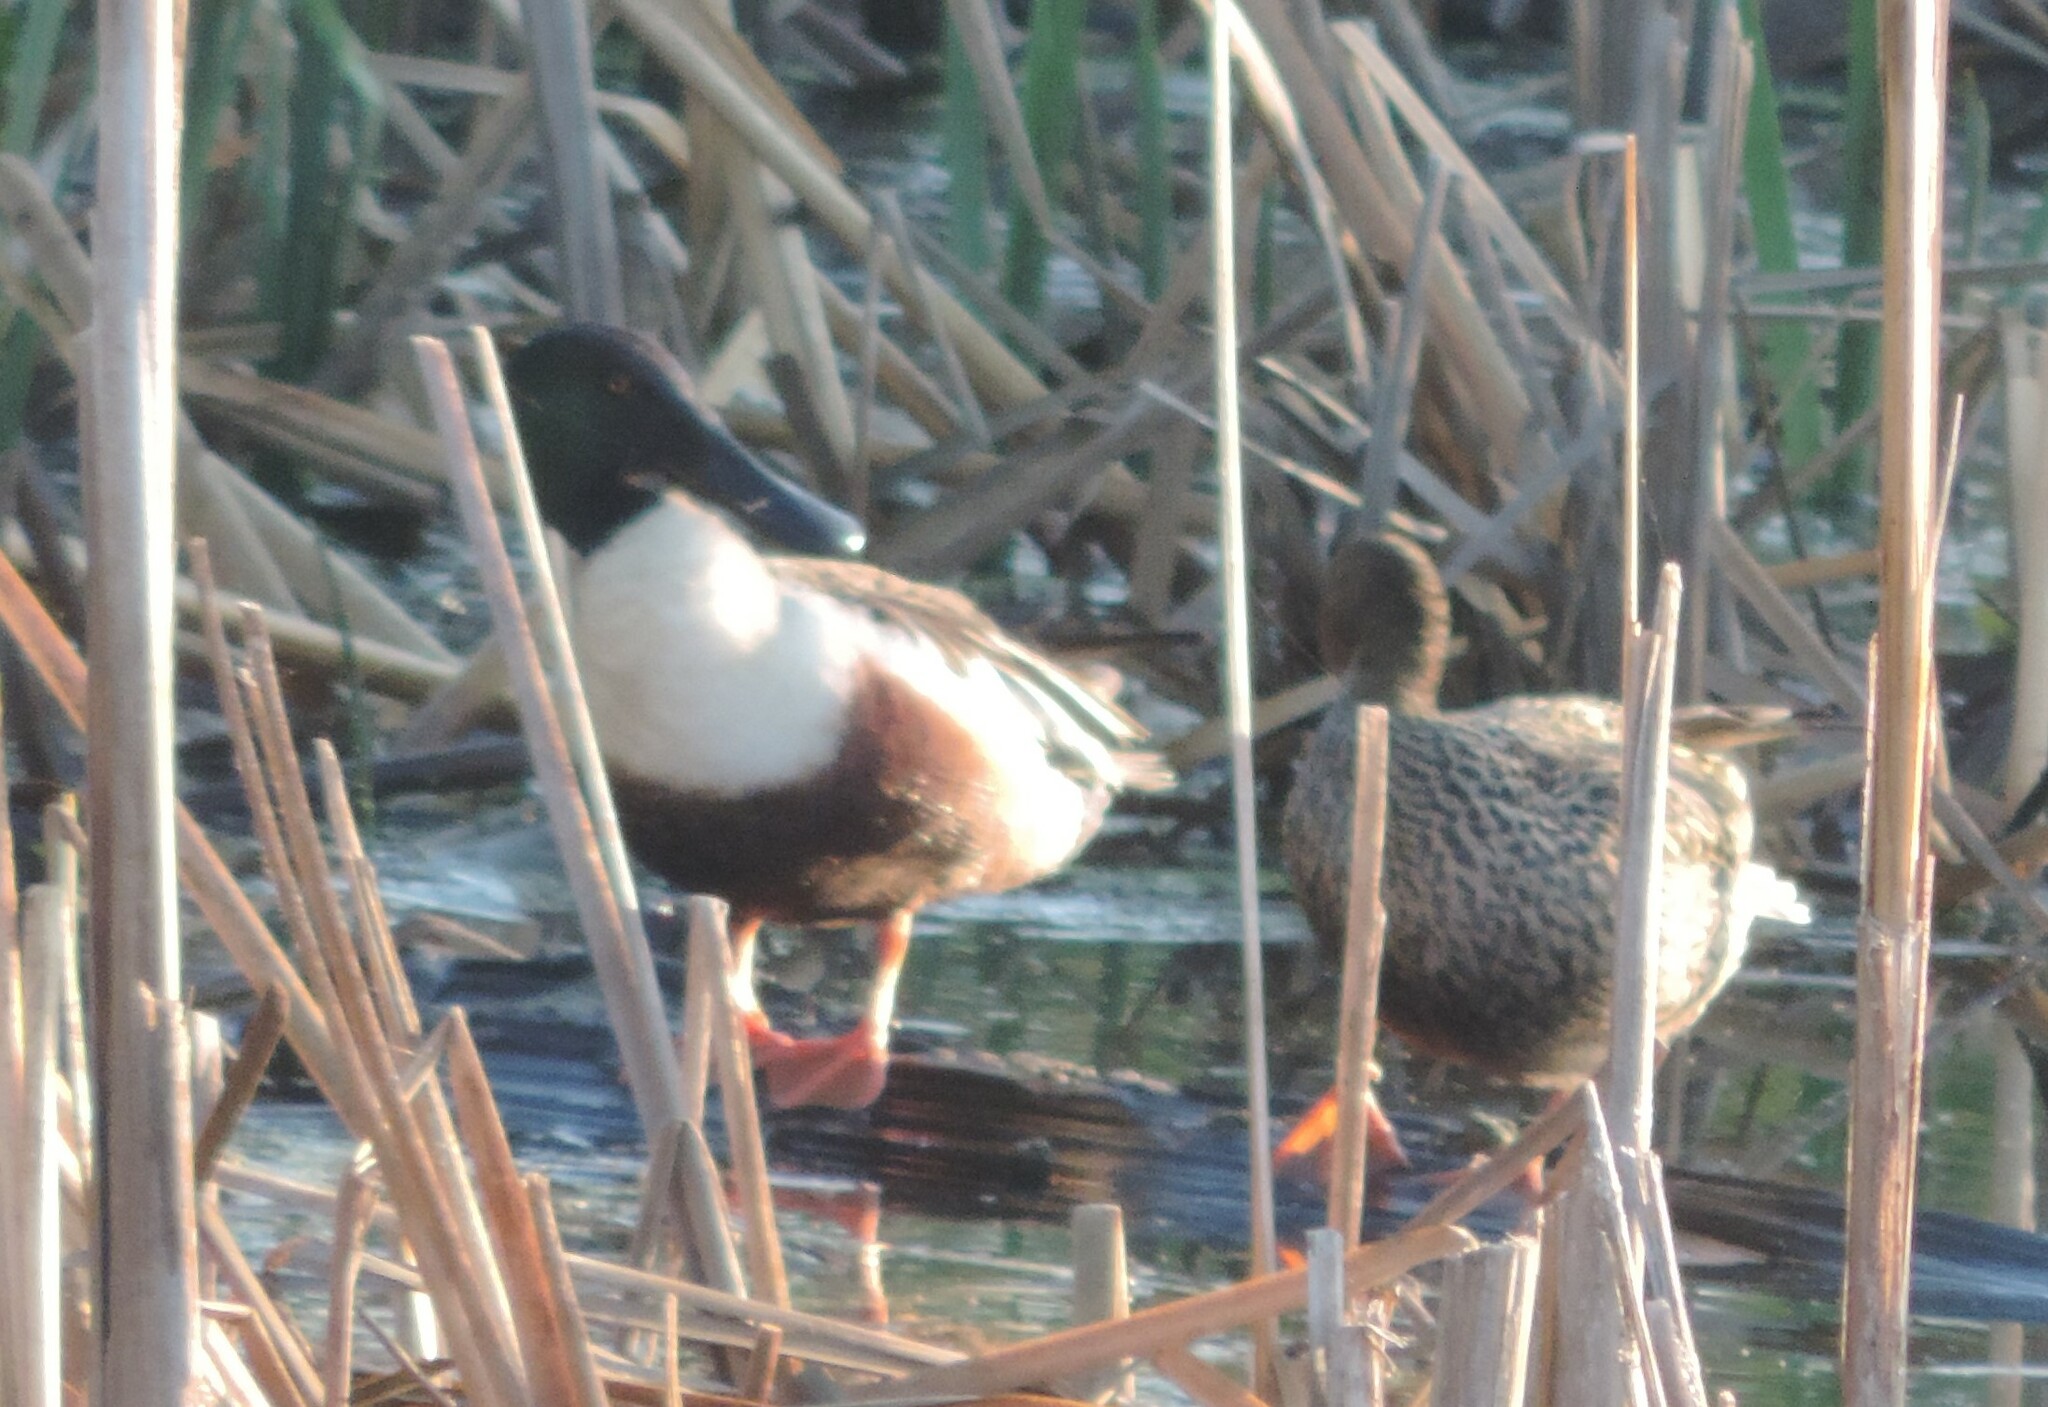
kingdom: Animalia
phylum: Chordata
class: Aves
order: Anseriformes
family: Anatidae
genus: Spatula
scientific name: Spatula clypeata
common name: Northern shoveler
